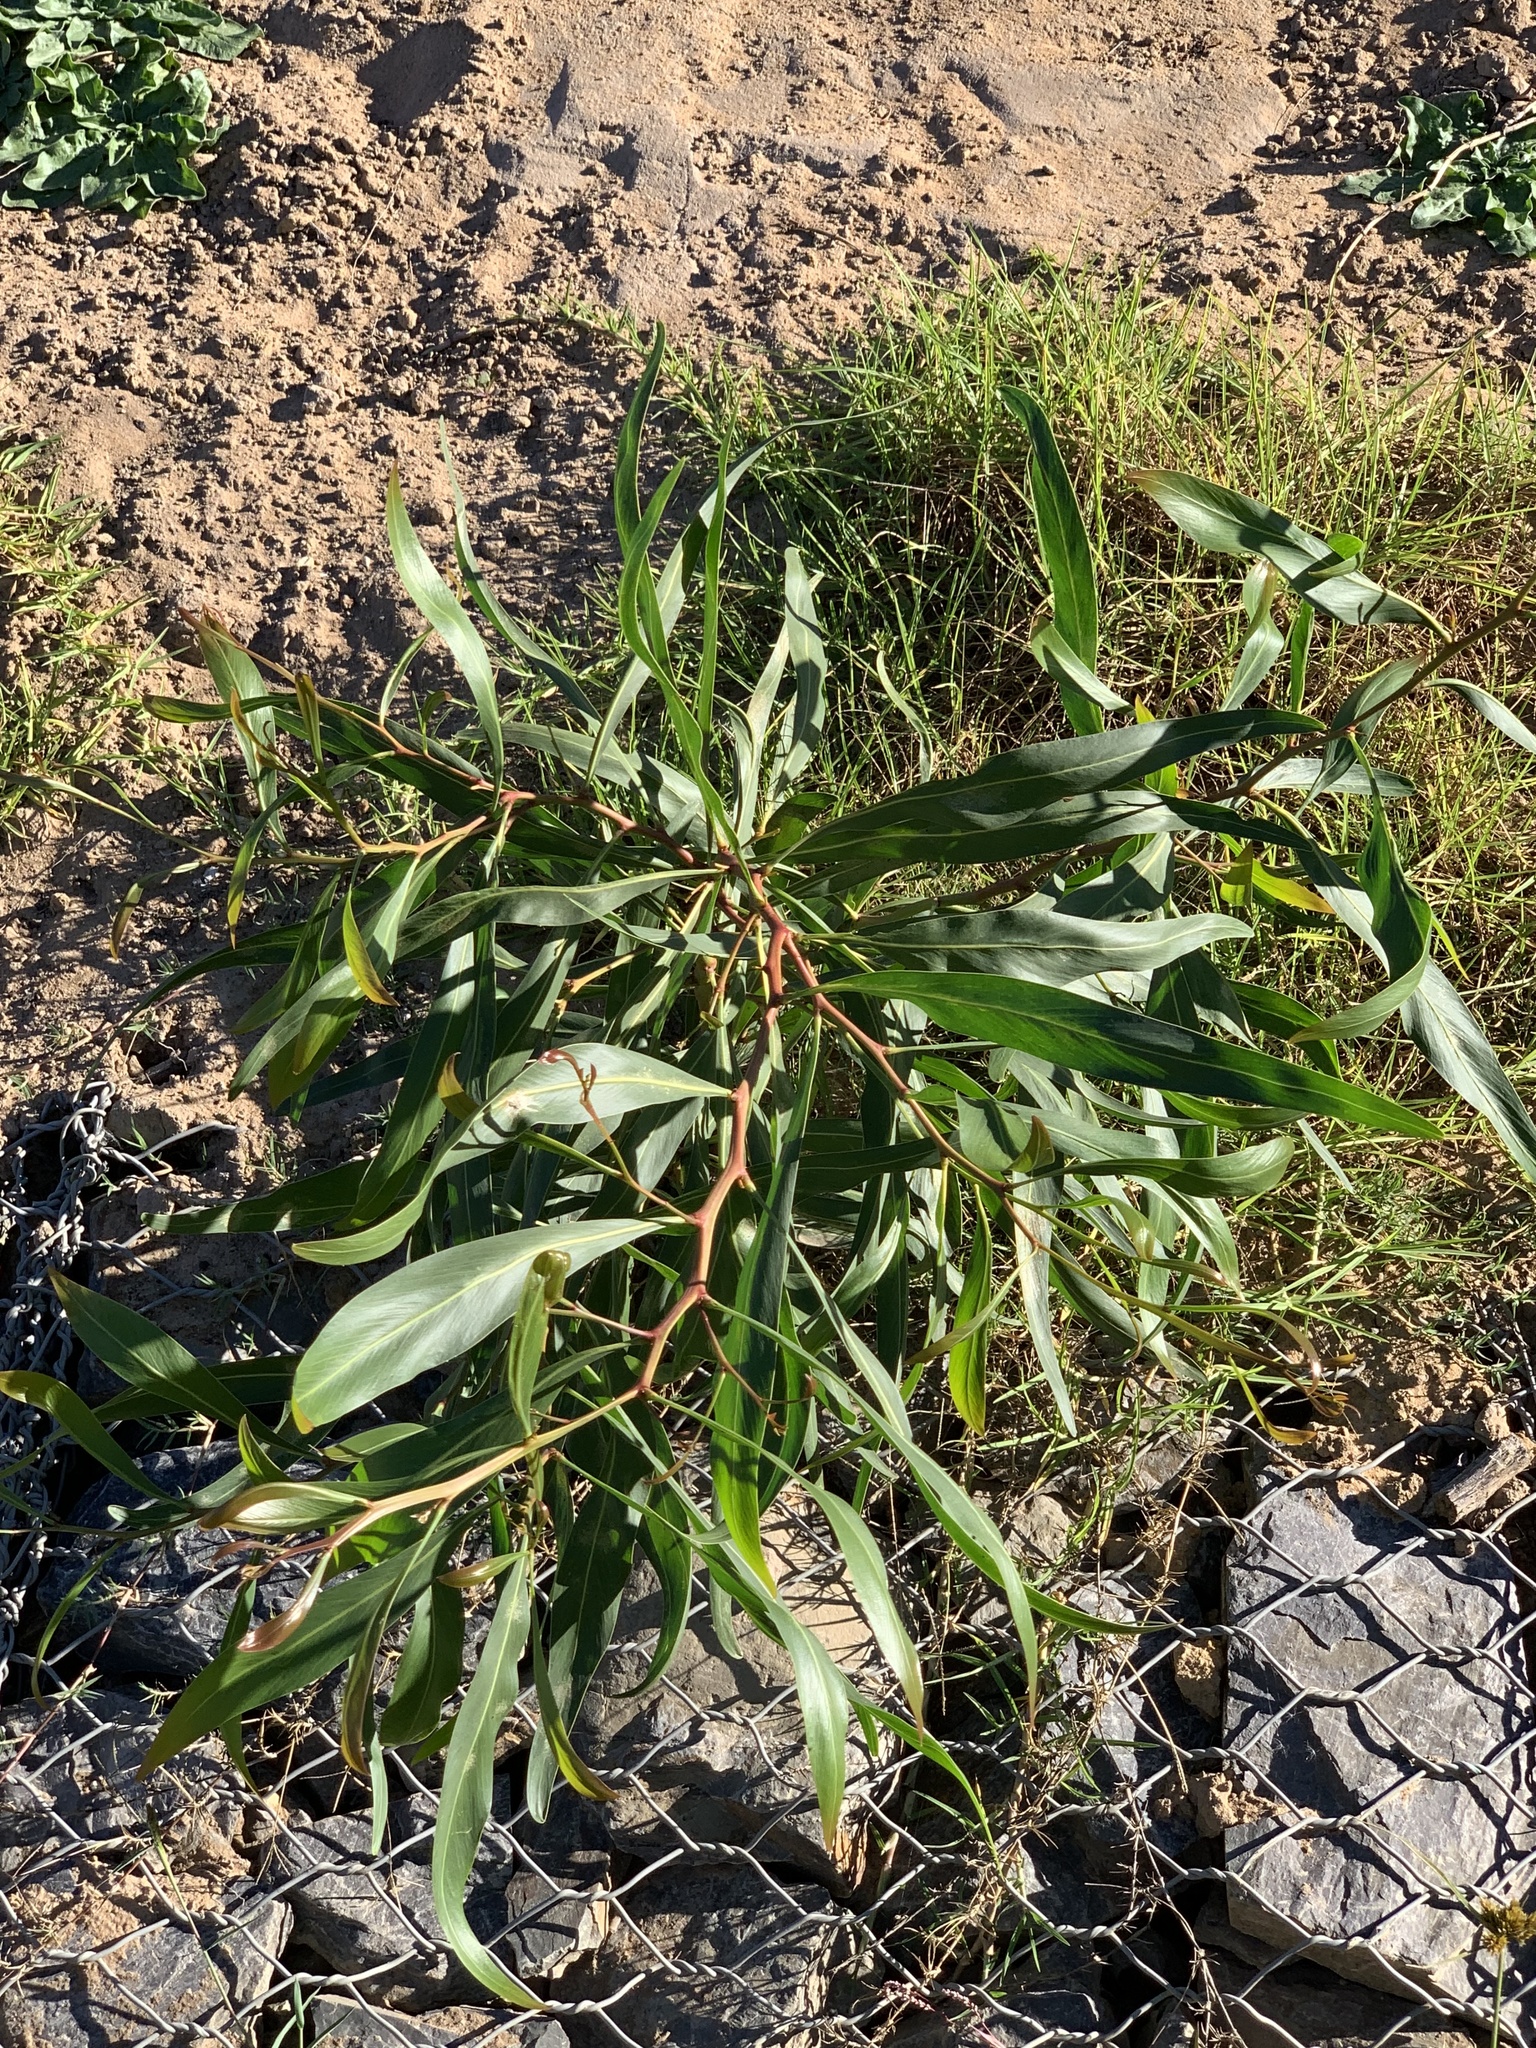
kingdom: Plantae
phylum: Tracheophyta
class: Magnoliopsida
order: Fabales
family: Fabaceae
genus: Acacia
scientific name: Acacia saligna
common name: Orange wattle
